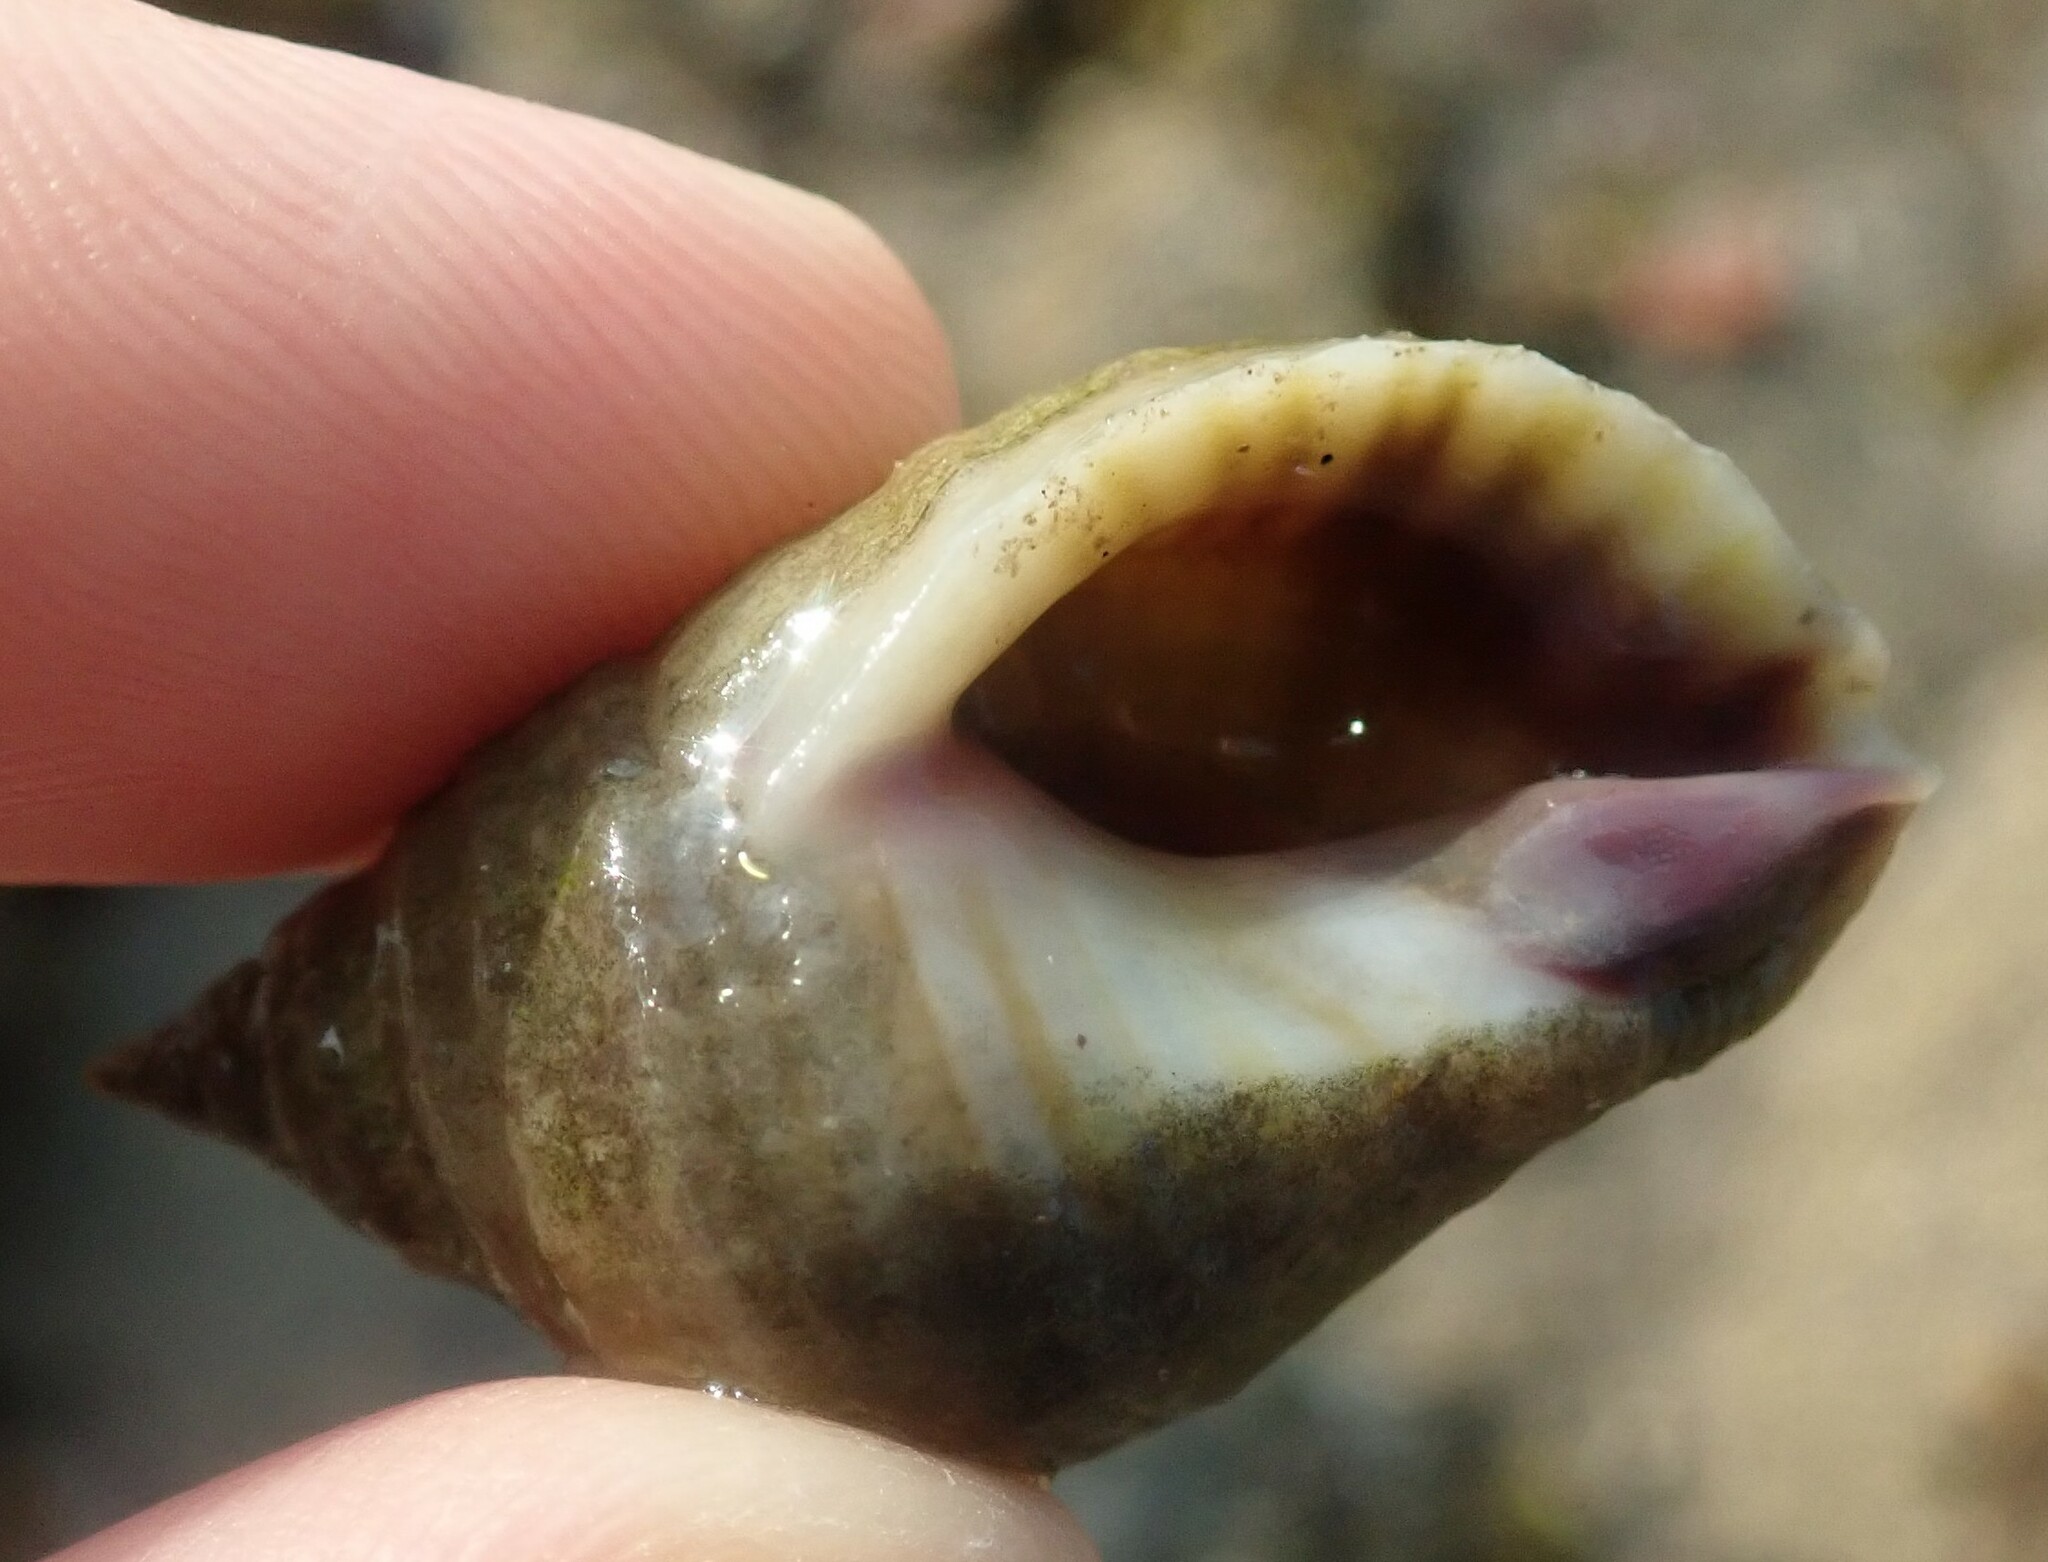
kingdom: Animalia
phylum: Mollusca
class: Gastropoda
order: Neogastropoda
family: Muricidae
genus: Nucella
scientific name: Nucella lapillus
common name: Dog whelk
